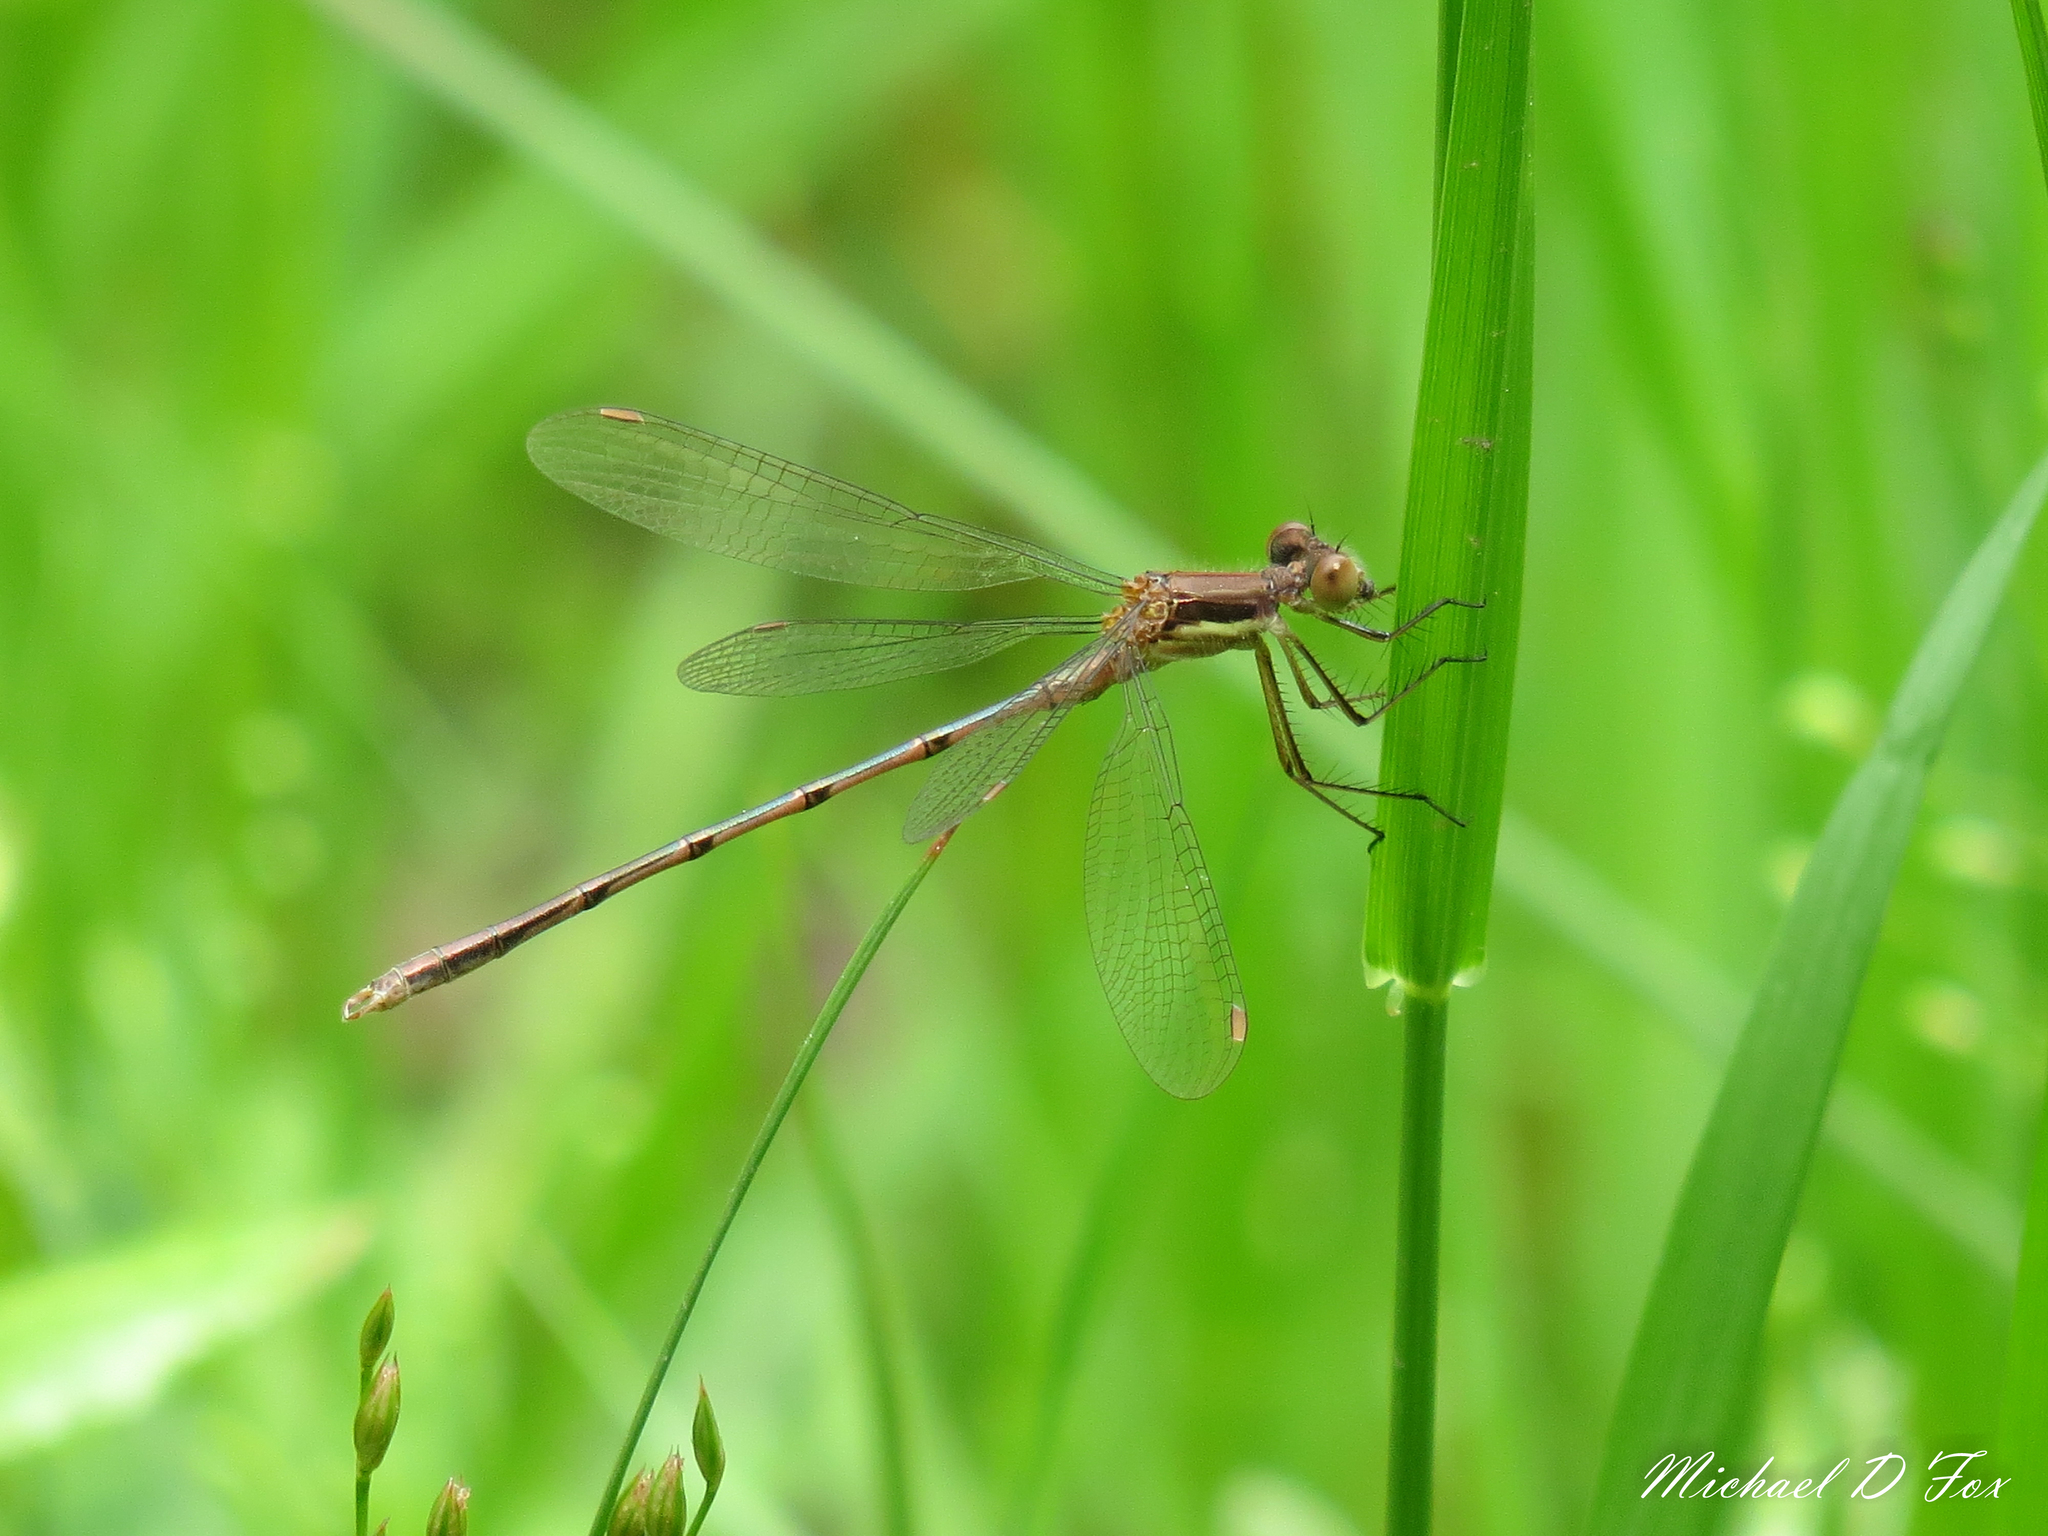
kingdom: Animalia
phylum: Arthropoda
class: Insecta
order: Odonata
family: Lestidae
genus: Lestes
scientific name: Lestes australis
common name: Southern spreadwing
